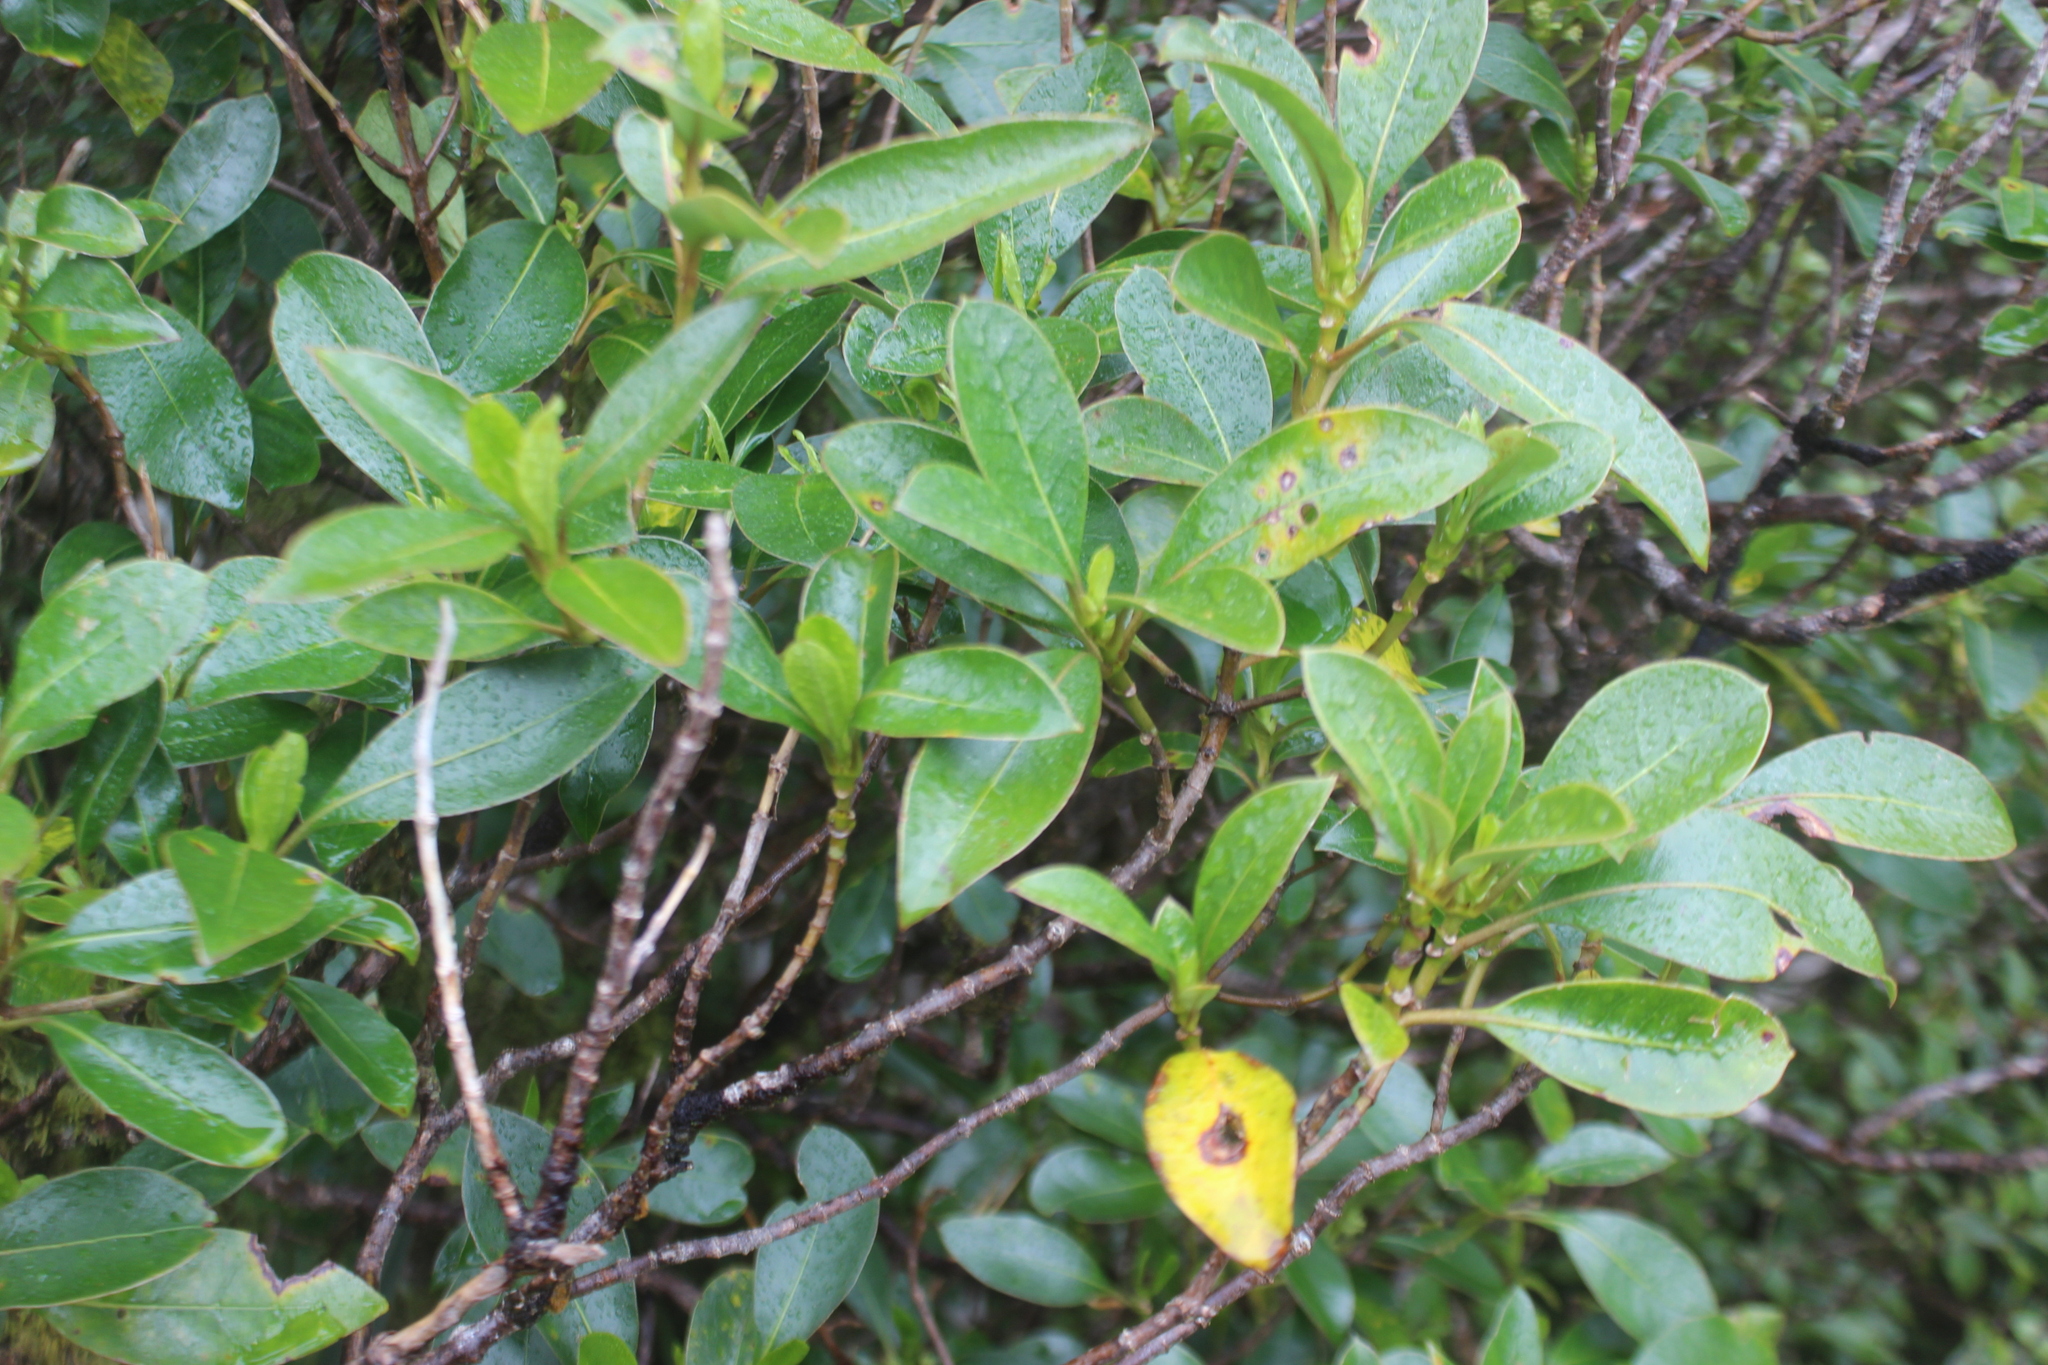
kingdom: Plantae
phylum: Tracheophyta
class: Magnoliopsida
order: Gentianales
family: Rubiaceae
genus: Coprosma
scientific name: Coprosma lucida
